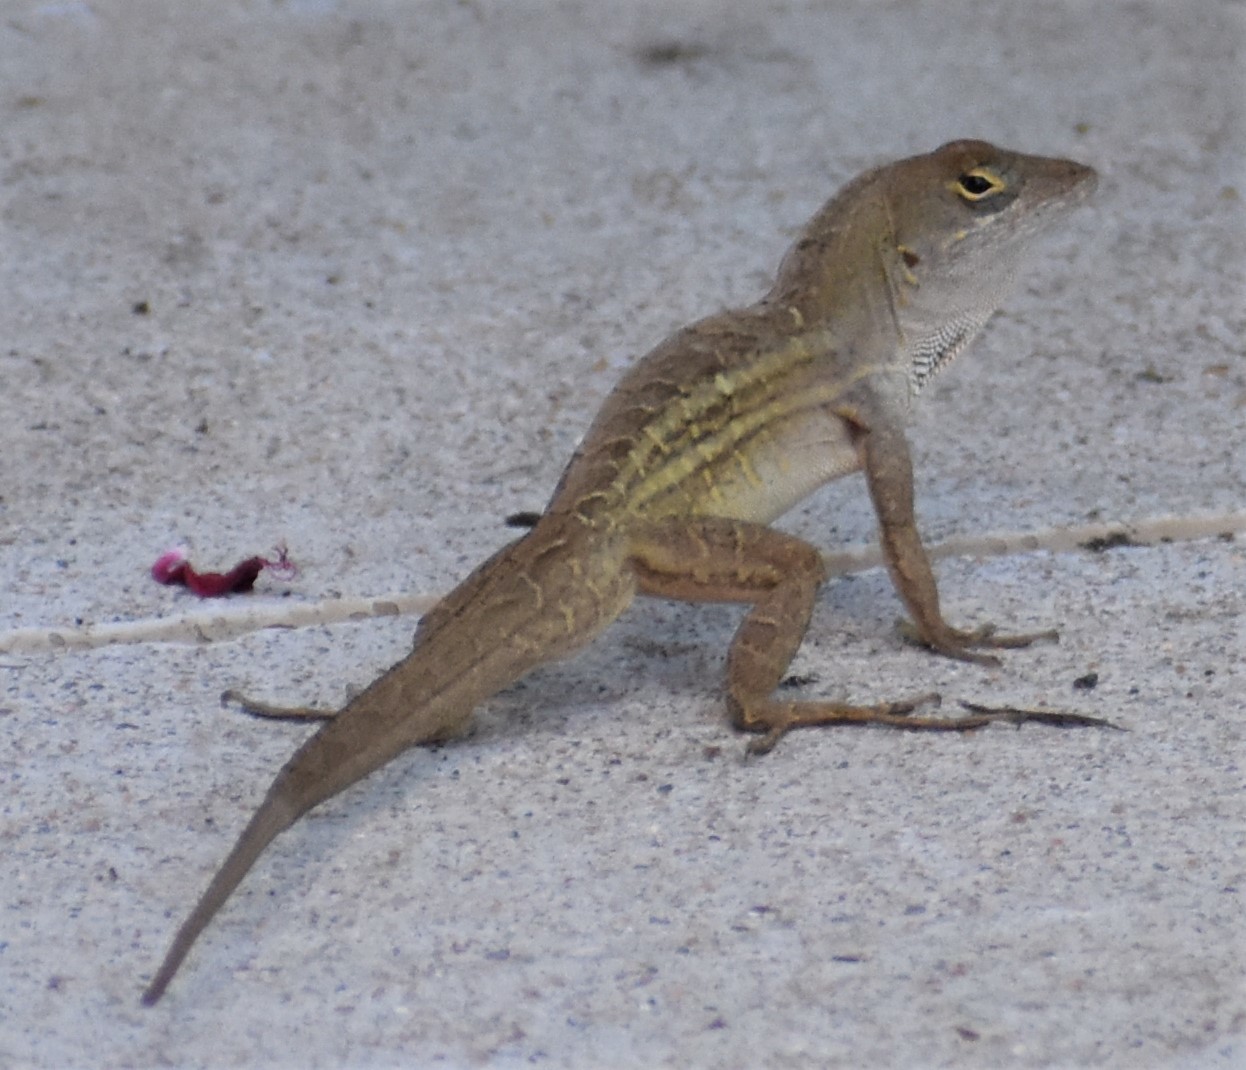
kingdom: Animalia
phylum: Chordata
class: Squamata
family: Dactyloidae
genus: Anolis
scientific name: Anolis sagrei
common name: Brown anole
